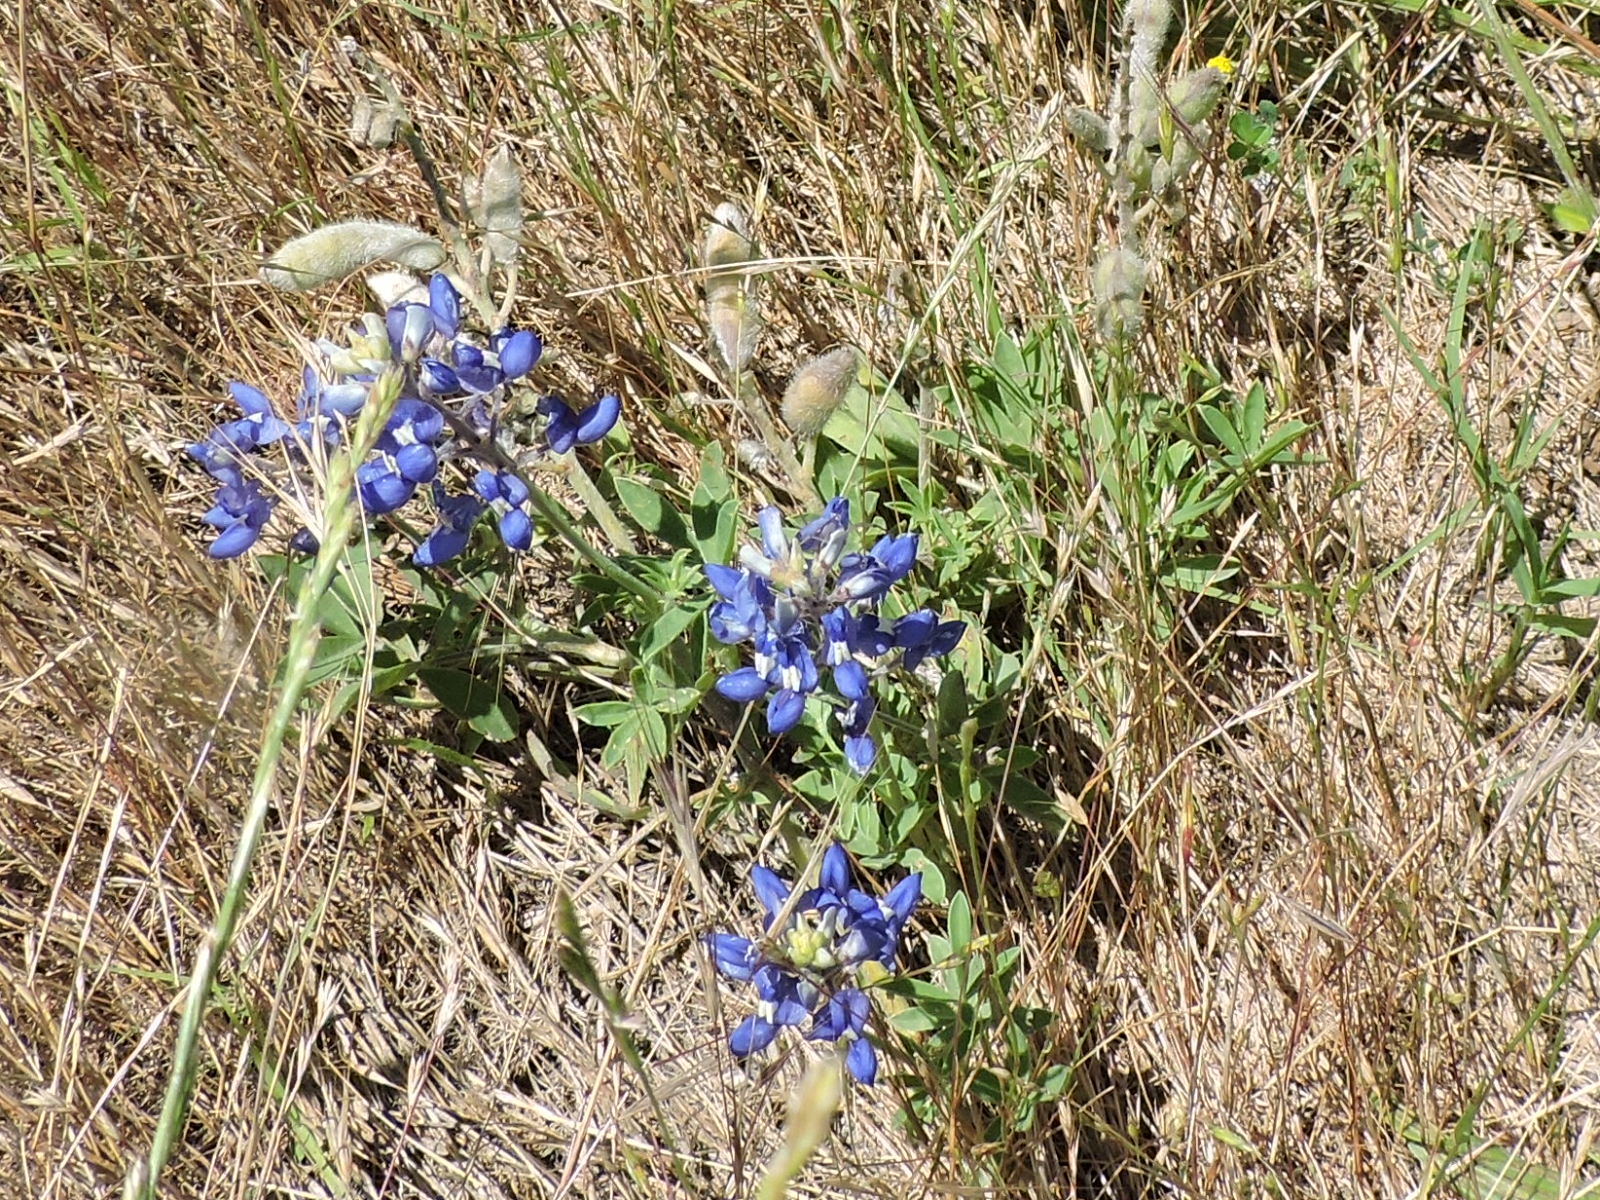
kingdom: Plantae
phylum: Tracheophyta
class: Magnoliopsida
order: Fabales
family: Fabaceae
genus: Lupinus
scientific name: Lupinus texensis
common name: Texas bluebonnet
